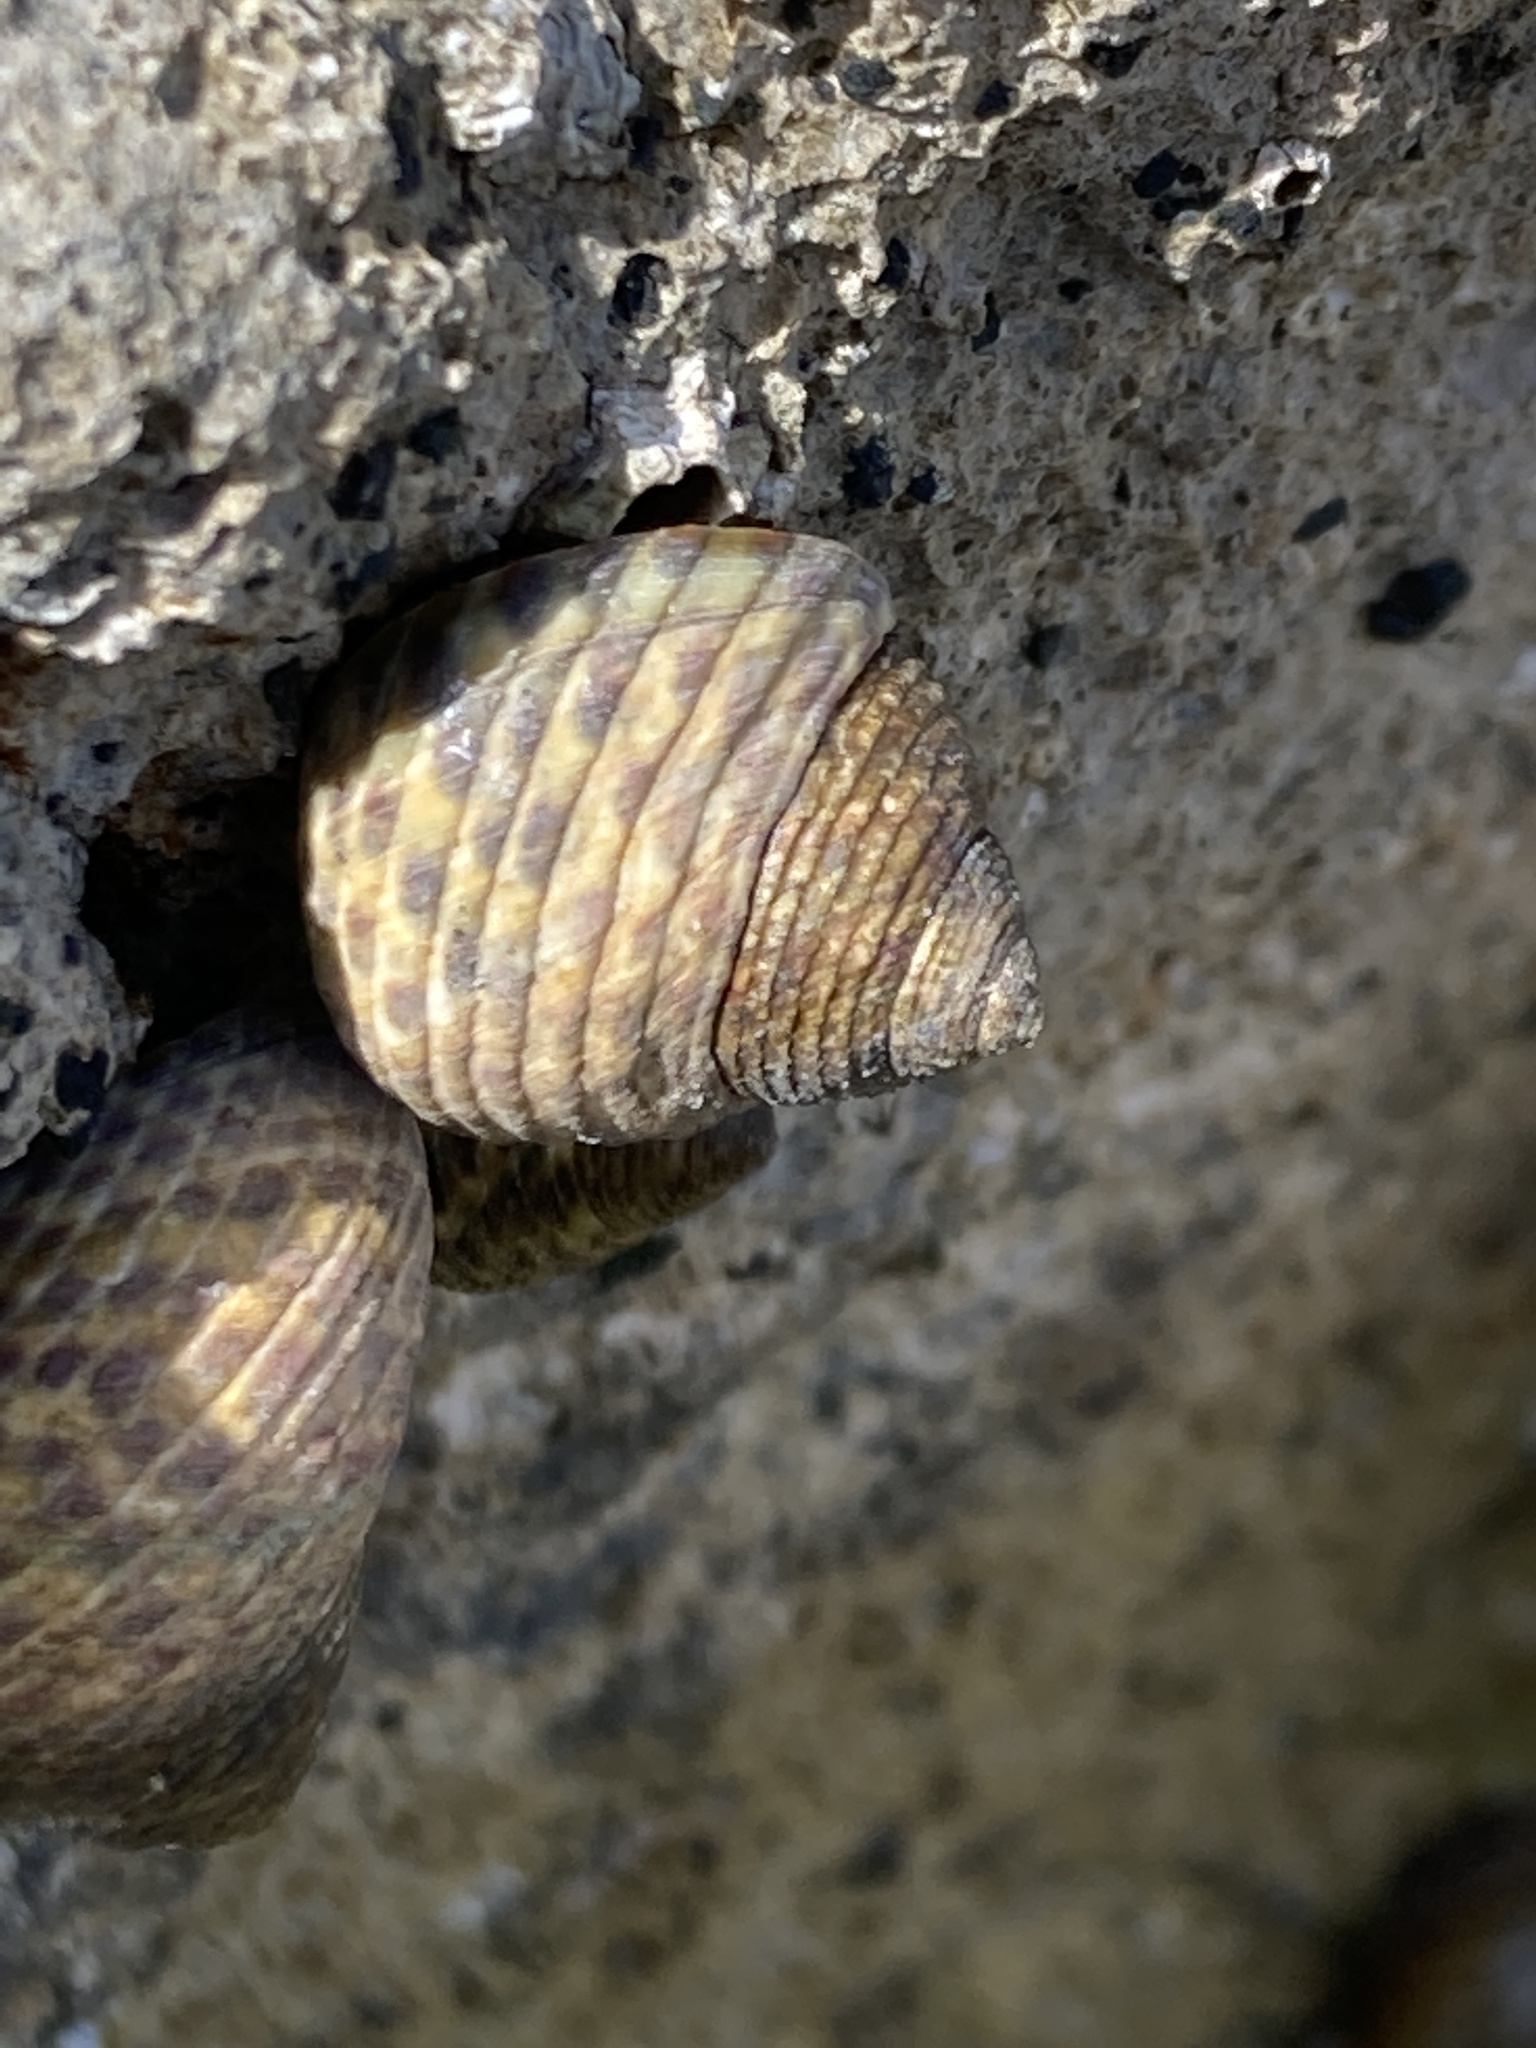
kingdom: Animalia
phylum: Mollusca
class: Gastropoda
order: Trochida
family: Trochidae
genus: Phorcus
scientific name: Phorcus turbinatus
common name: Turbinate monodont
